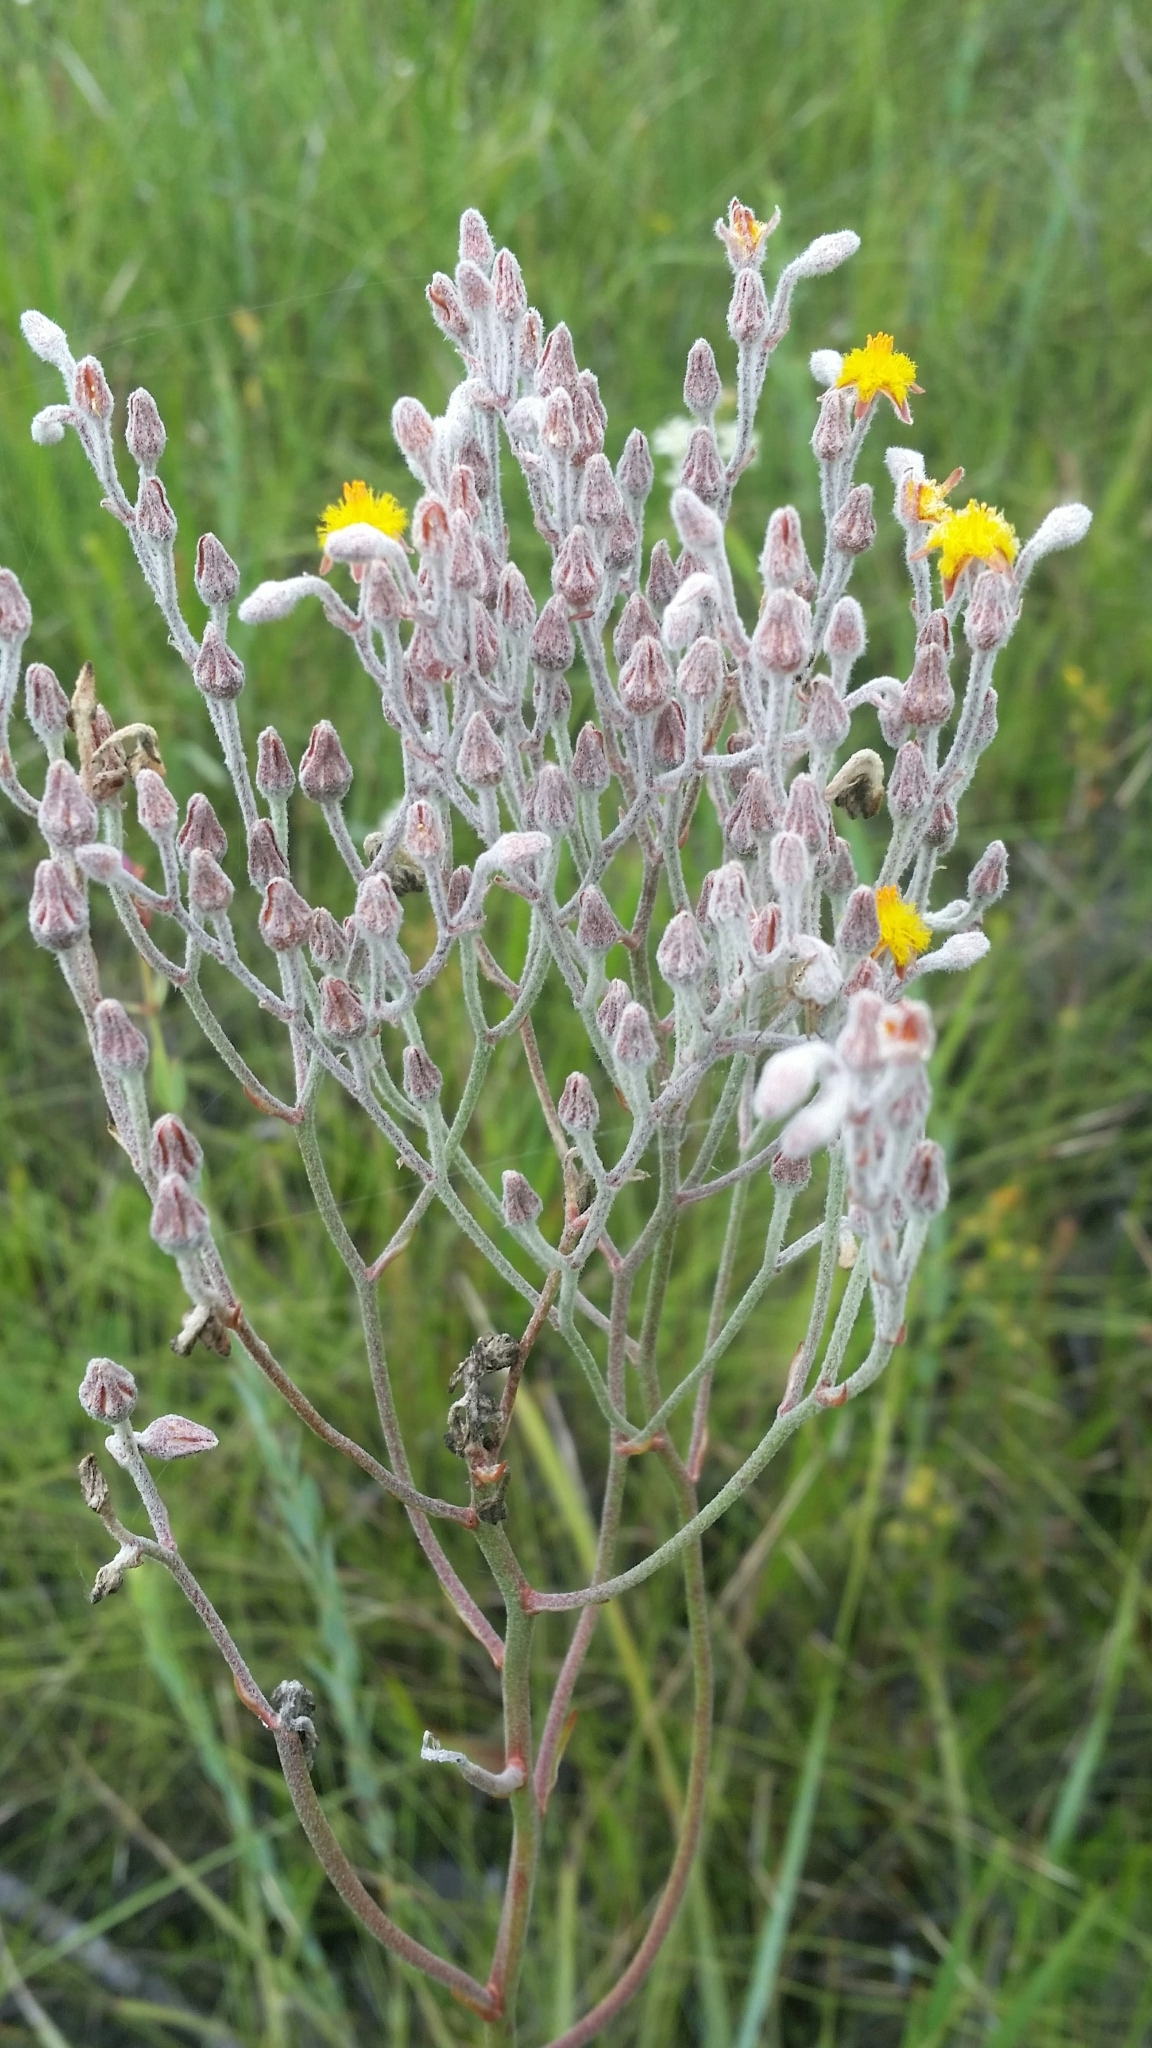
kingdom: Plantae
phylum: Tracheophyta
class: Liliopsida
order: Dioscoreales
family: Nartheciaceae
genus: Lophiola
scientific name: Lophiola aurea
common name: Golden-crest
